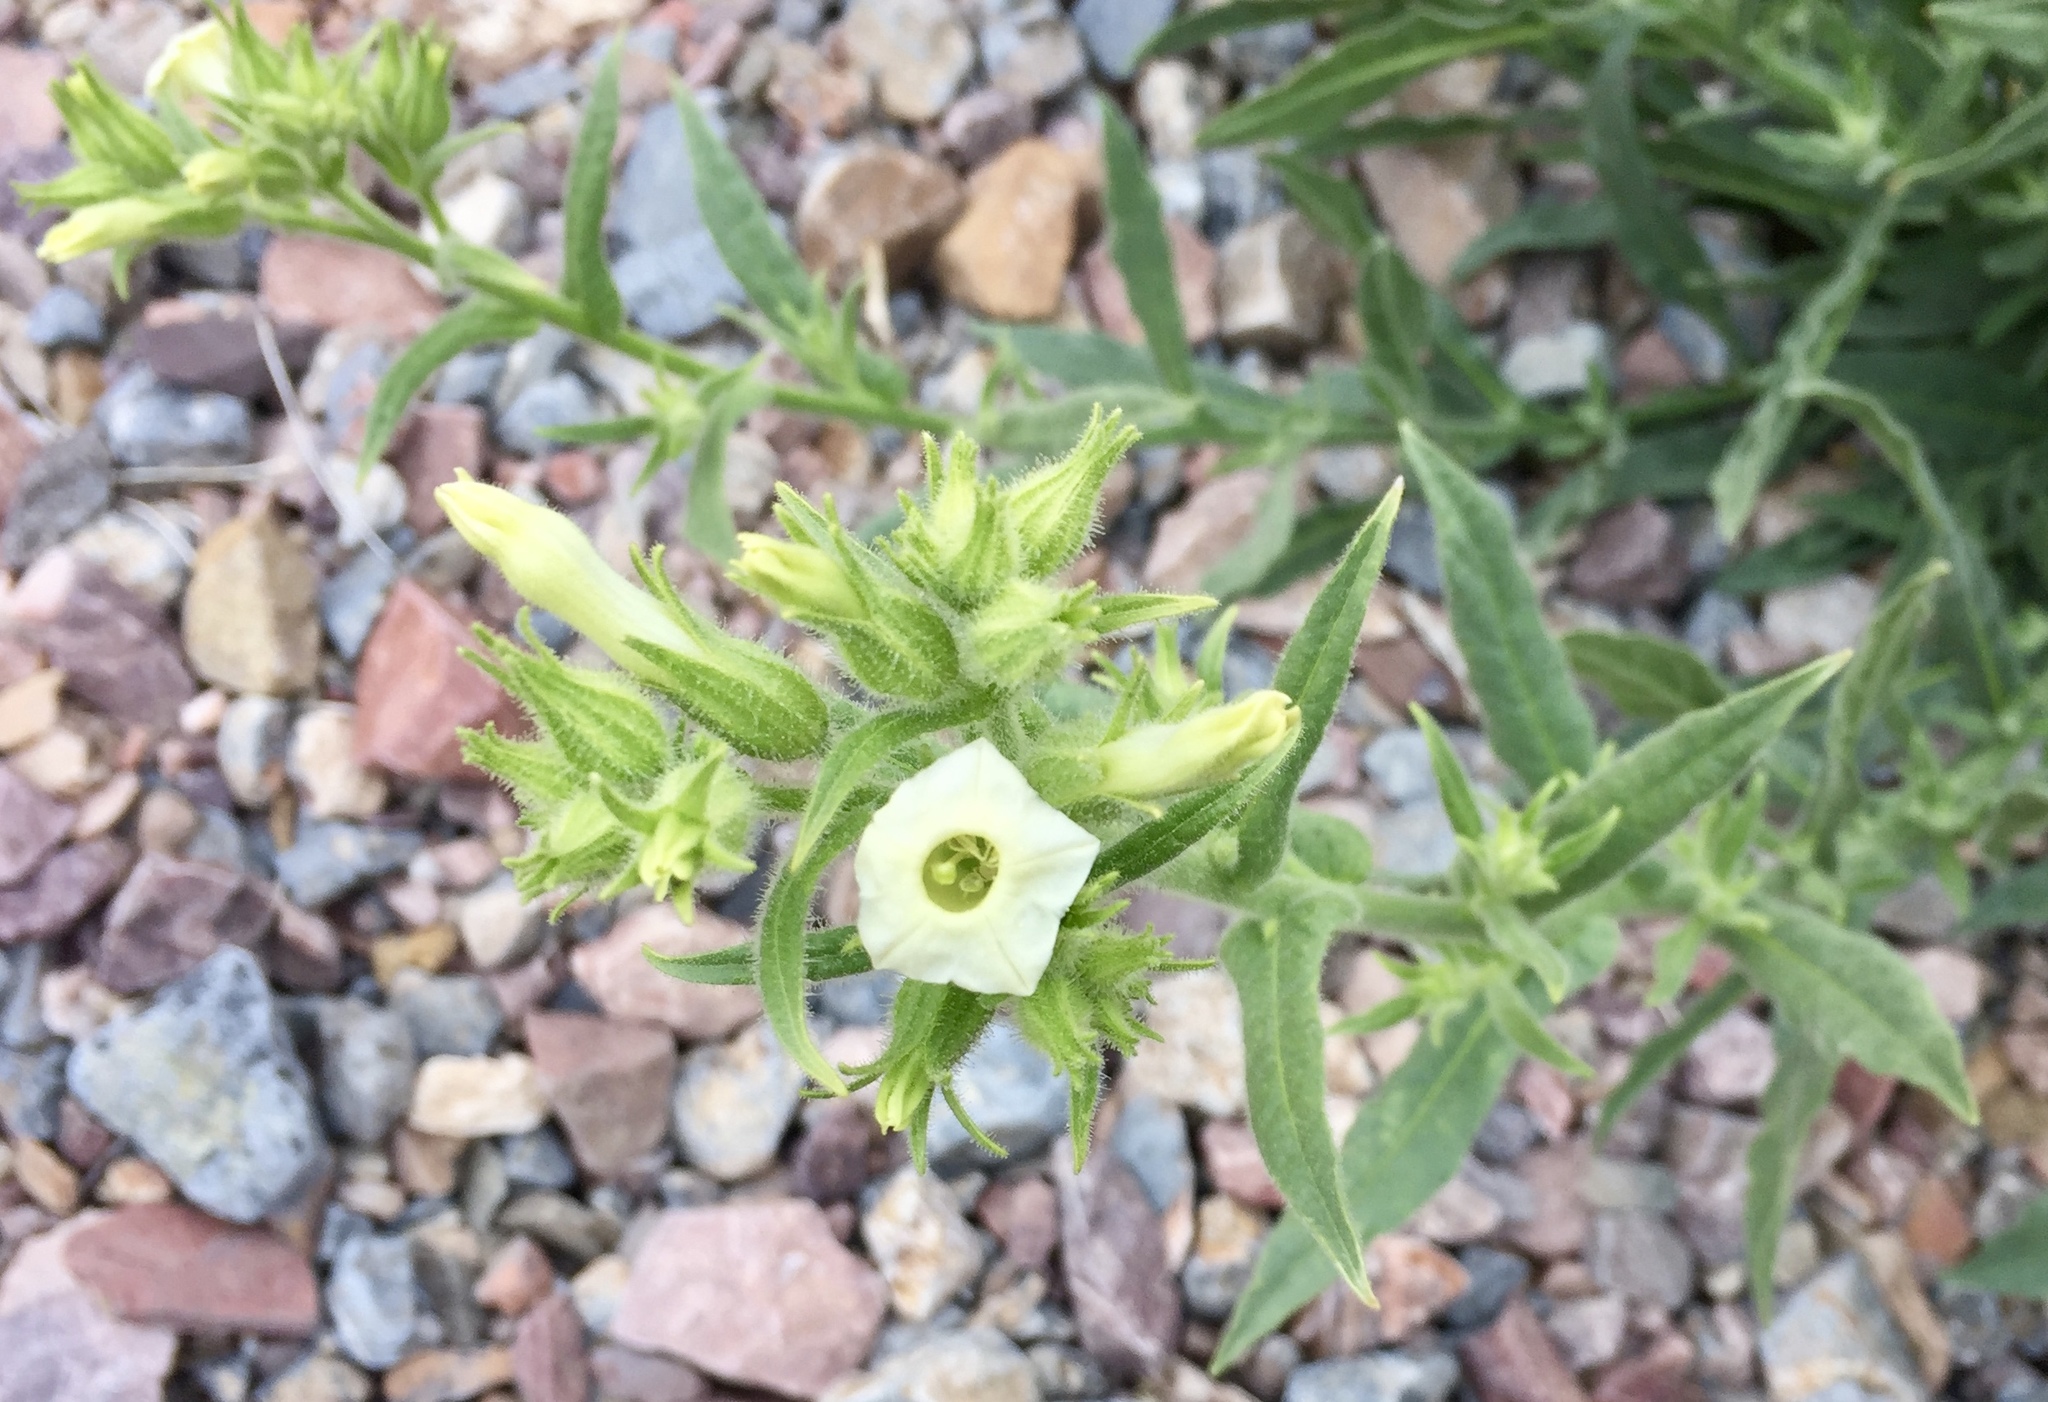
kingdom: Plantae
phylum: Tracheophyta
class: Magnoliopsida
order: Solanales
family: Solanaceae
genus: Nicotiana
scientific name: Nicotiana obtusifolia
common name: Desert tobacco
